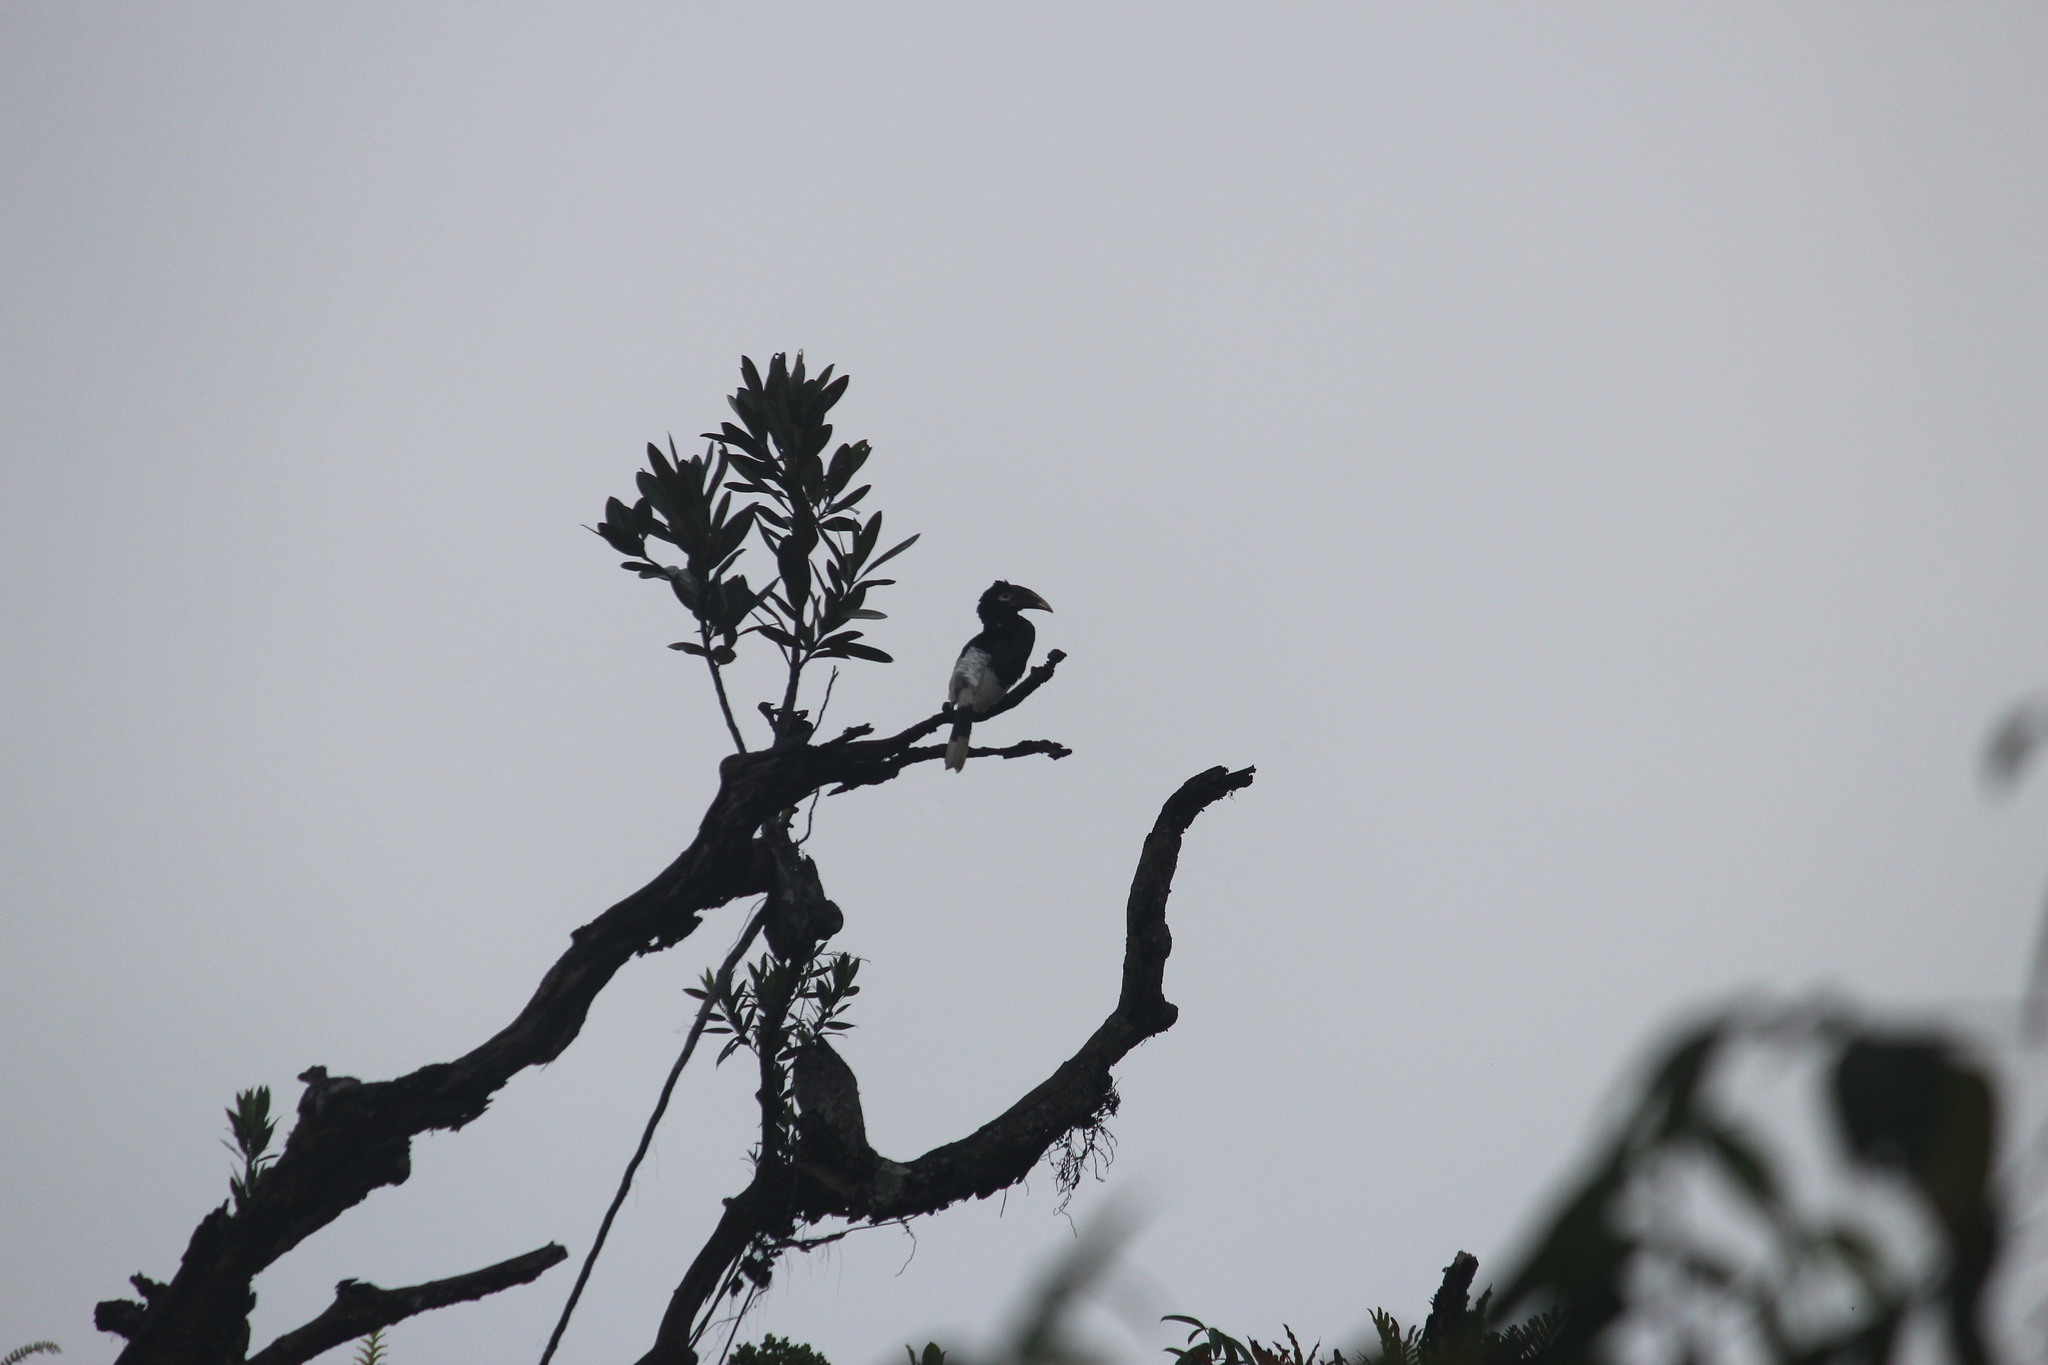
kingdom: Animalia
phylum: Chordata
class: Aves
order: Bucerotiformes
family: Bucerotidae
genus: Bycanistes
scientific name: Bycanistes fistulator
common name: Piping hornbill
